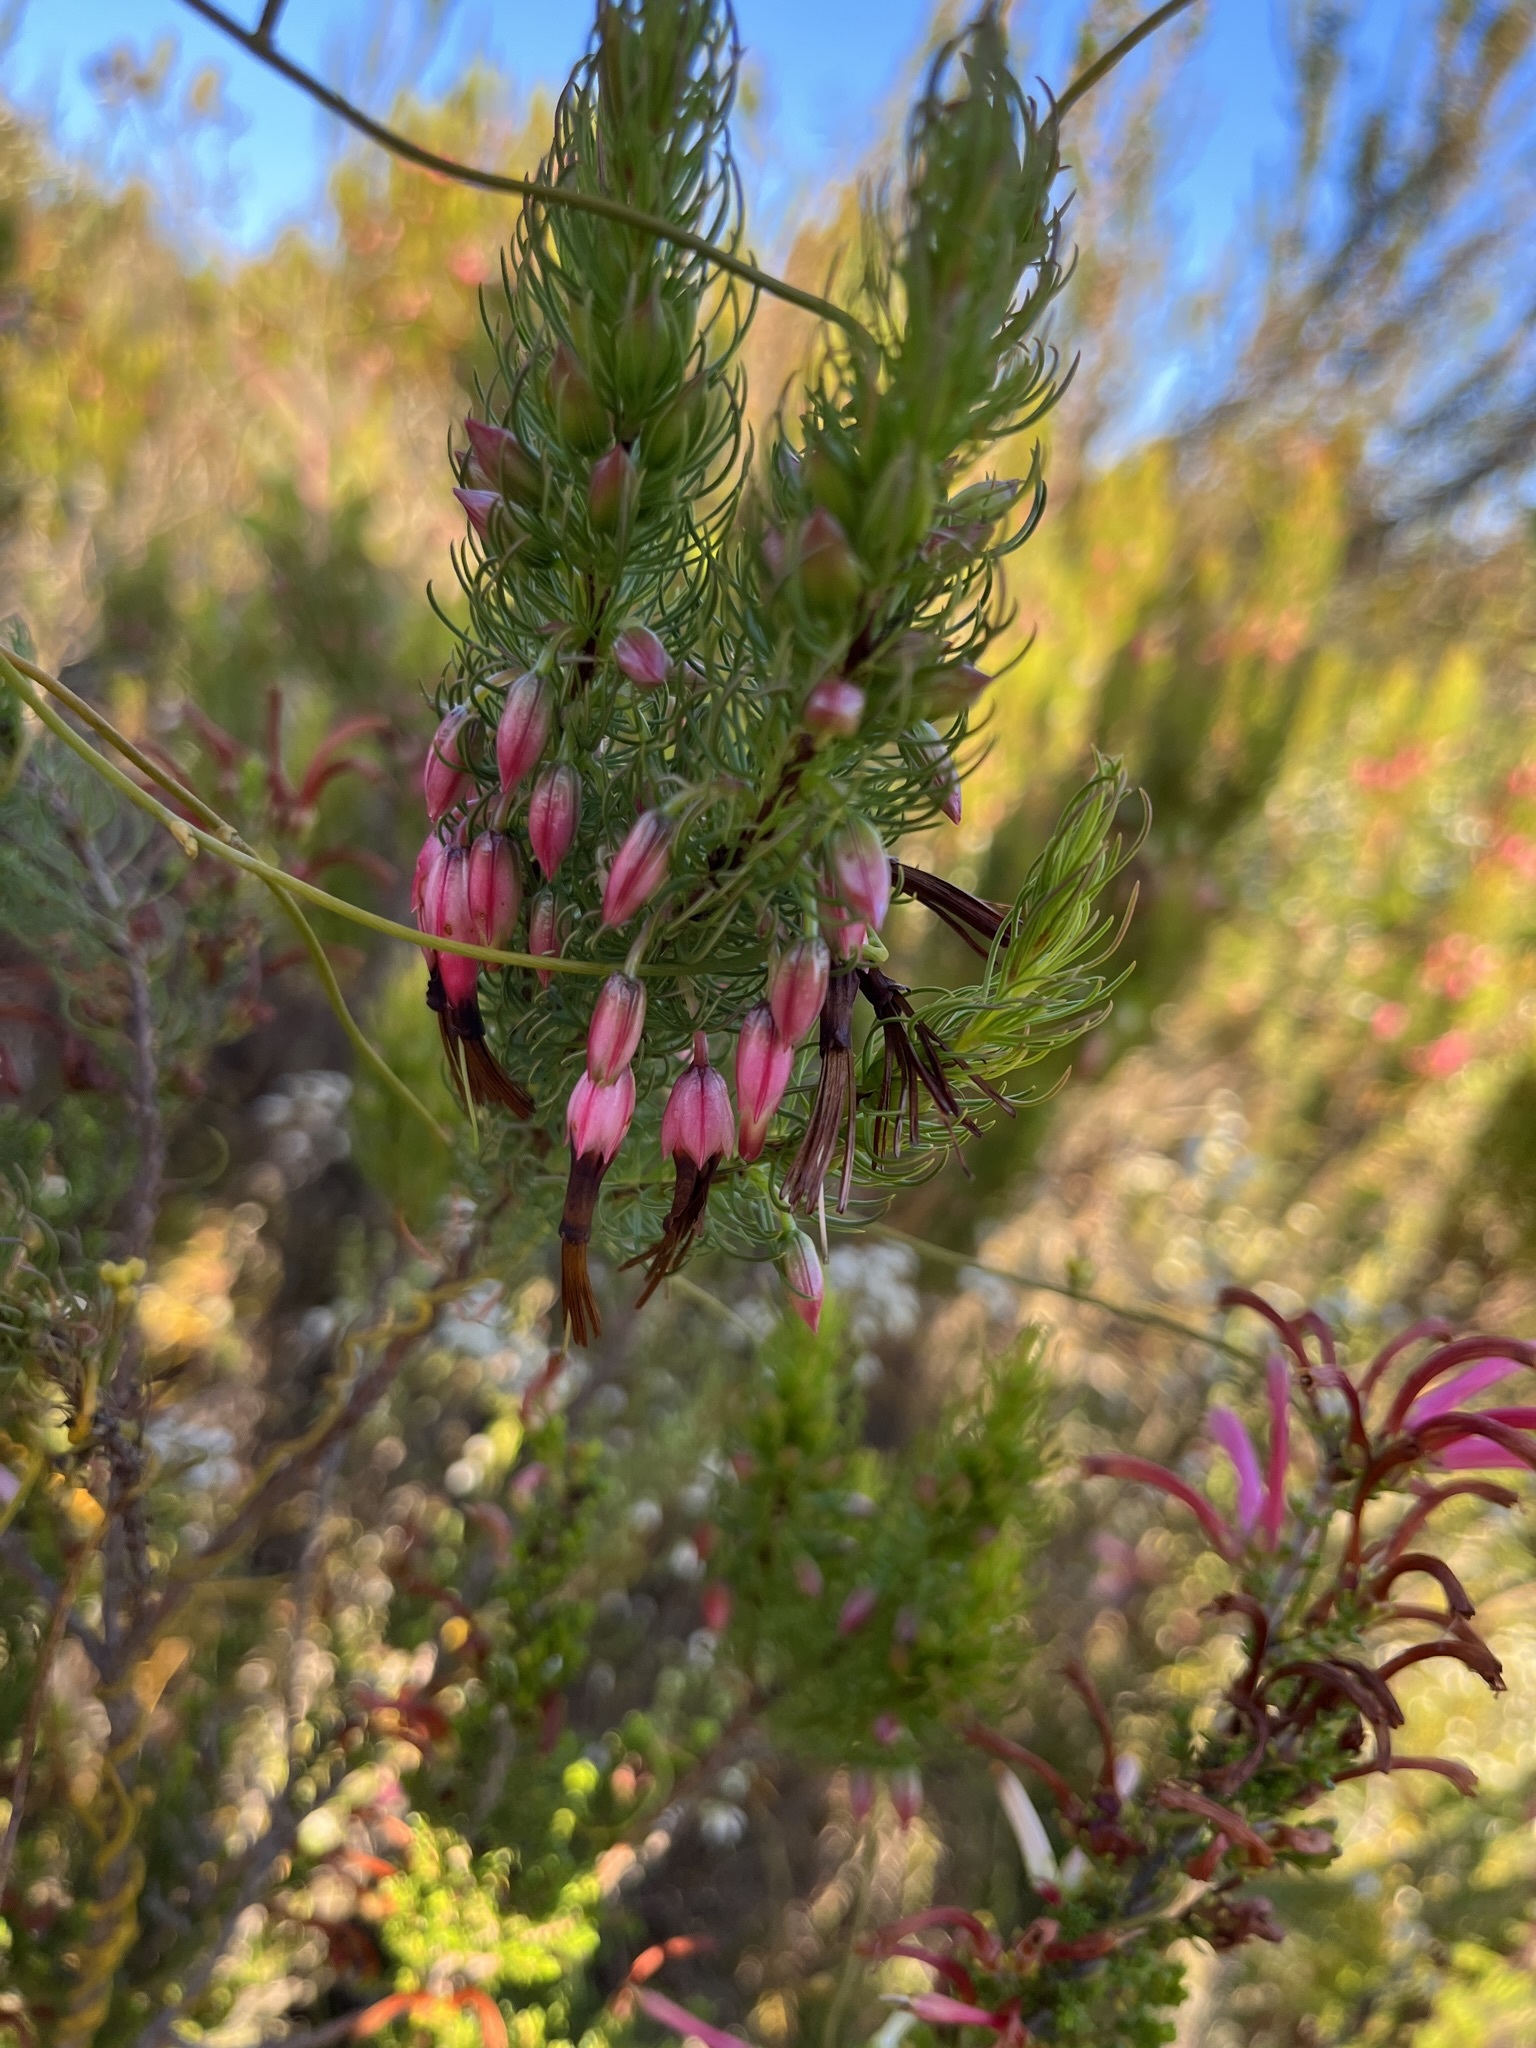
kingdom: Plantae
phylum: Tracheophyta
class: Magnoliopsida
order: Ericales
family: Ericaceae
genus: Erica
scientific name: Erica plukenetii
